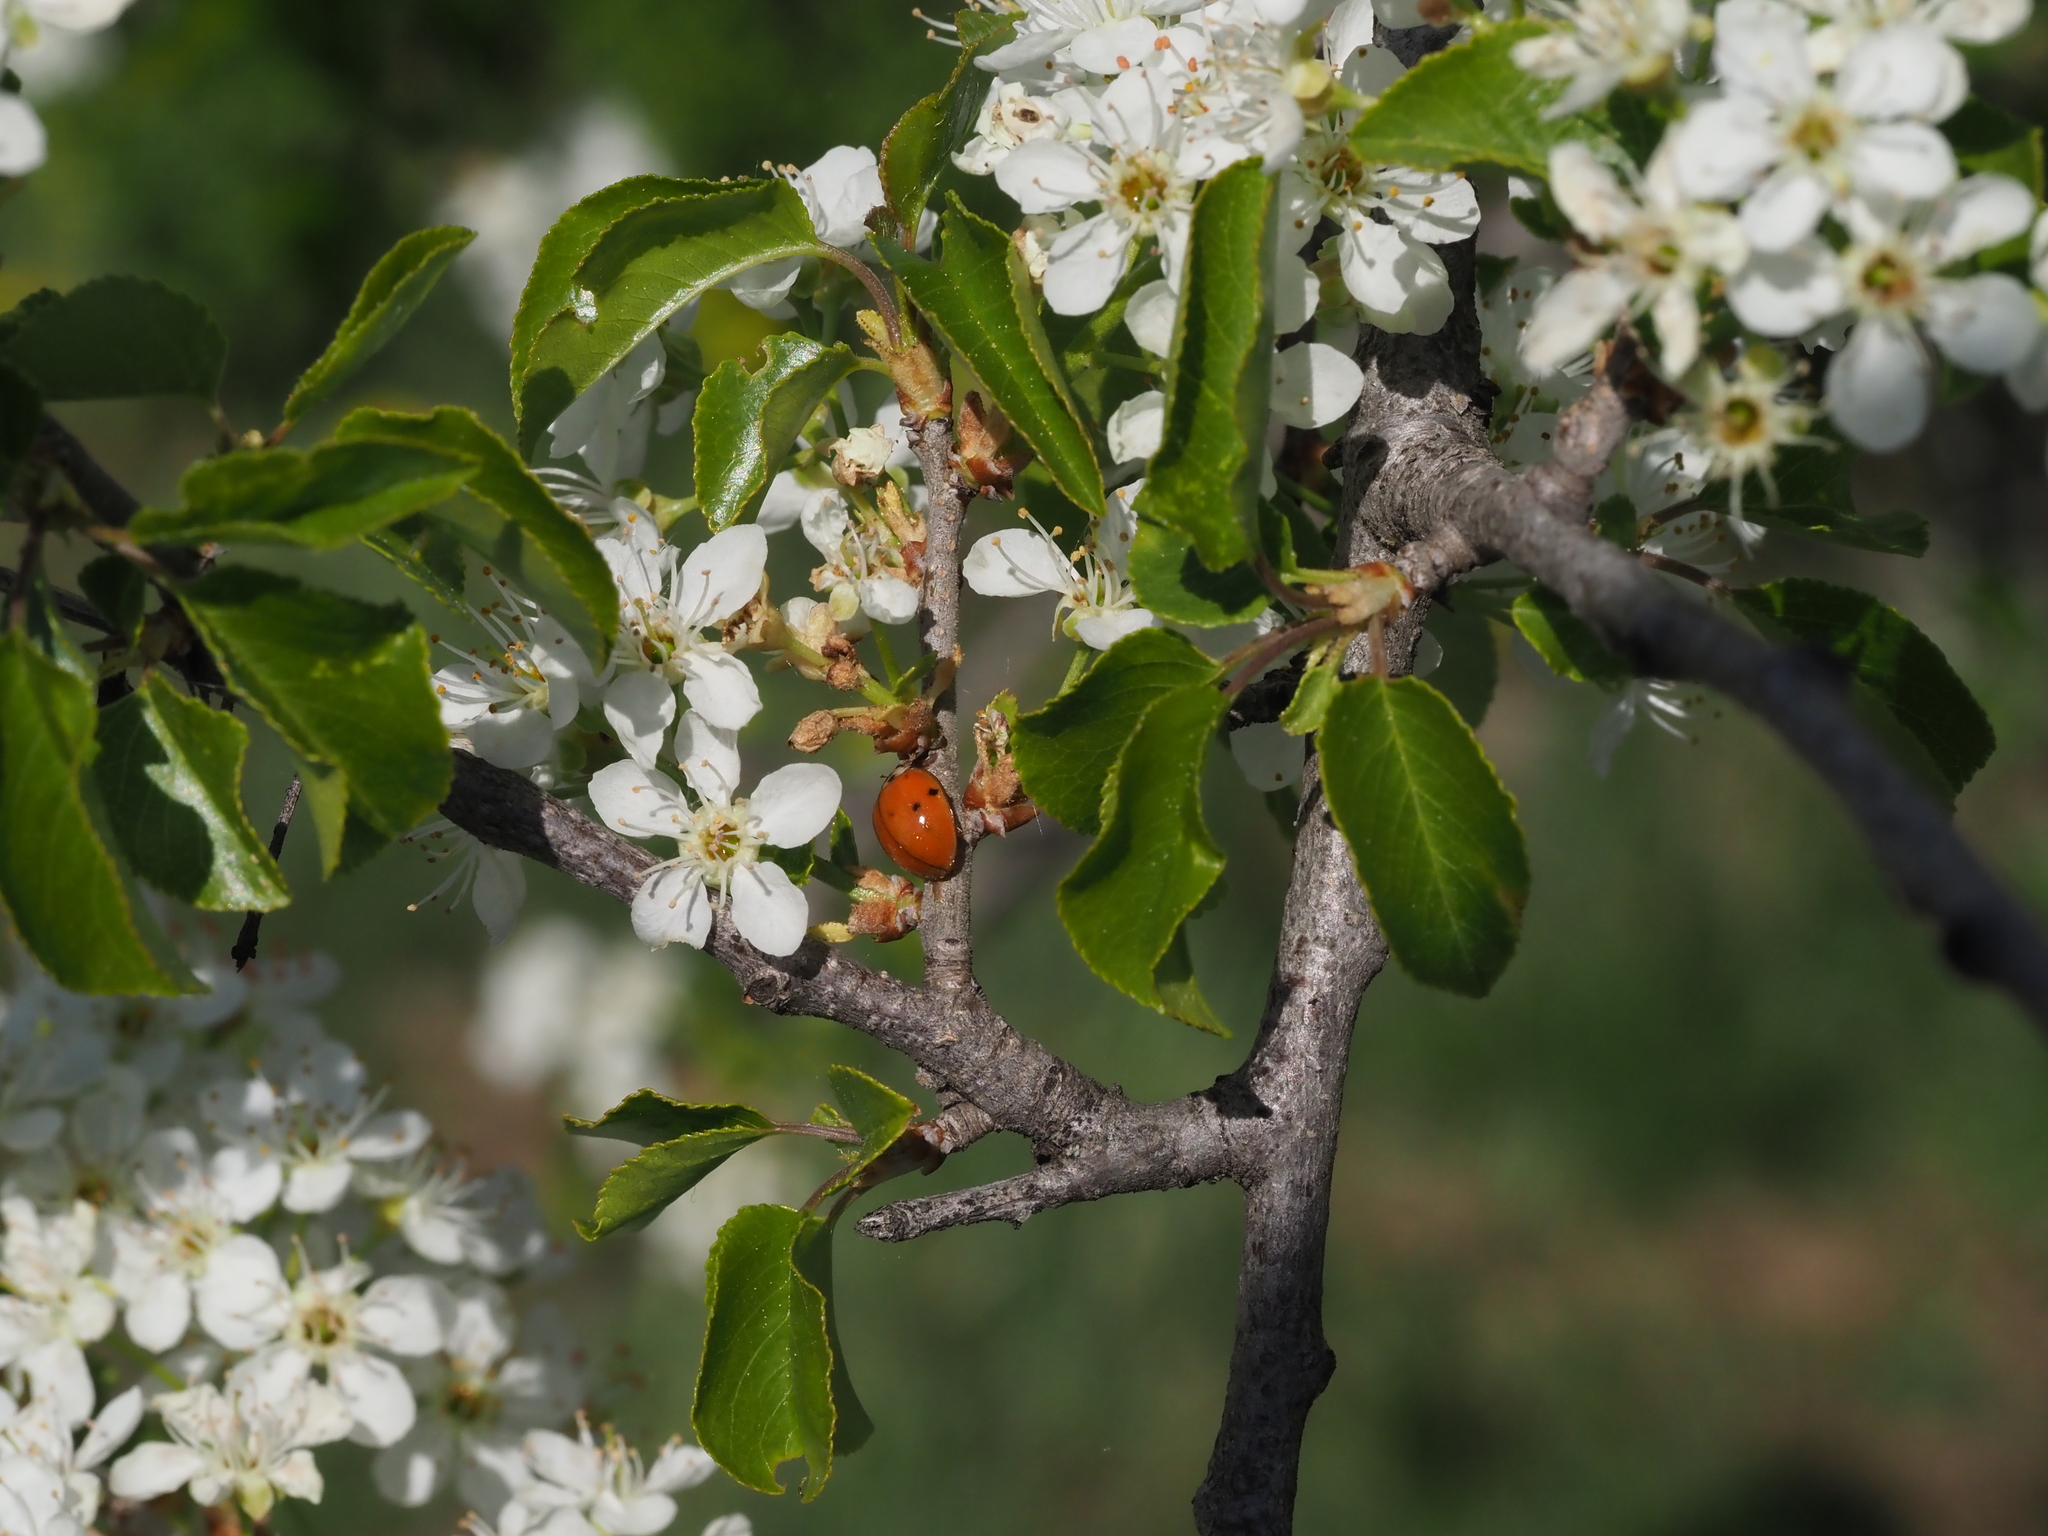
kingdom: Animalia
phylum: Arthropoda
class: Insecta
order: Coleoptera
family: Coccinellidae
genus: Harmonia
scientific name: Harmonia axyridis
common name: Harlequin ladybird
